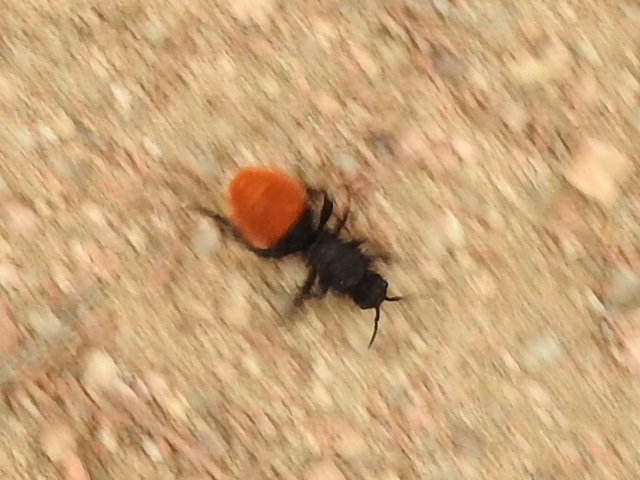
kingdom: Animalia
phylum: Arthropoda
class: Insecta
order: Hymenoptera
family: Mutillidae
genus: Dasymutilla
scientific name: Dasymutilla
